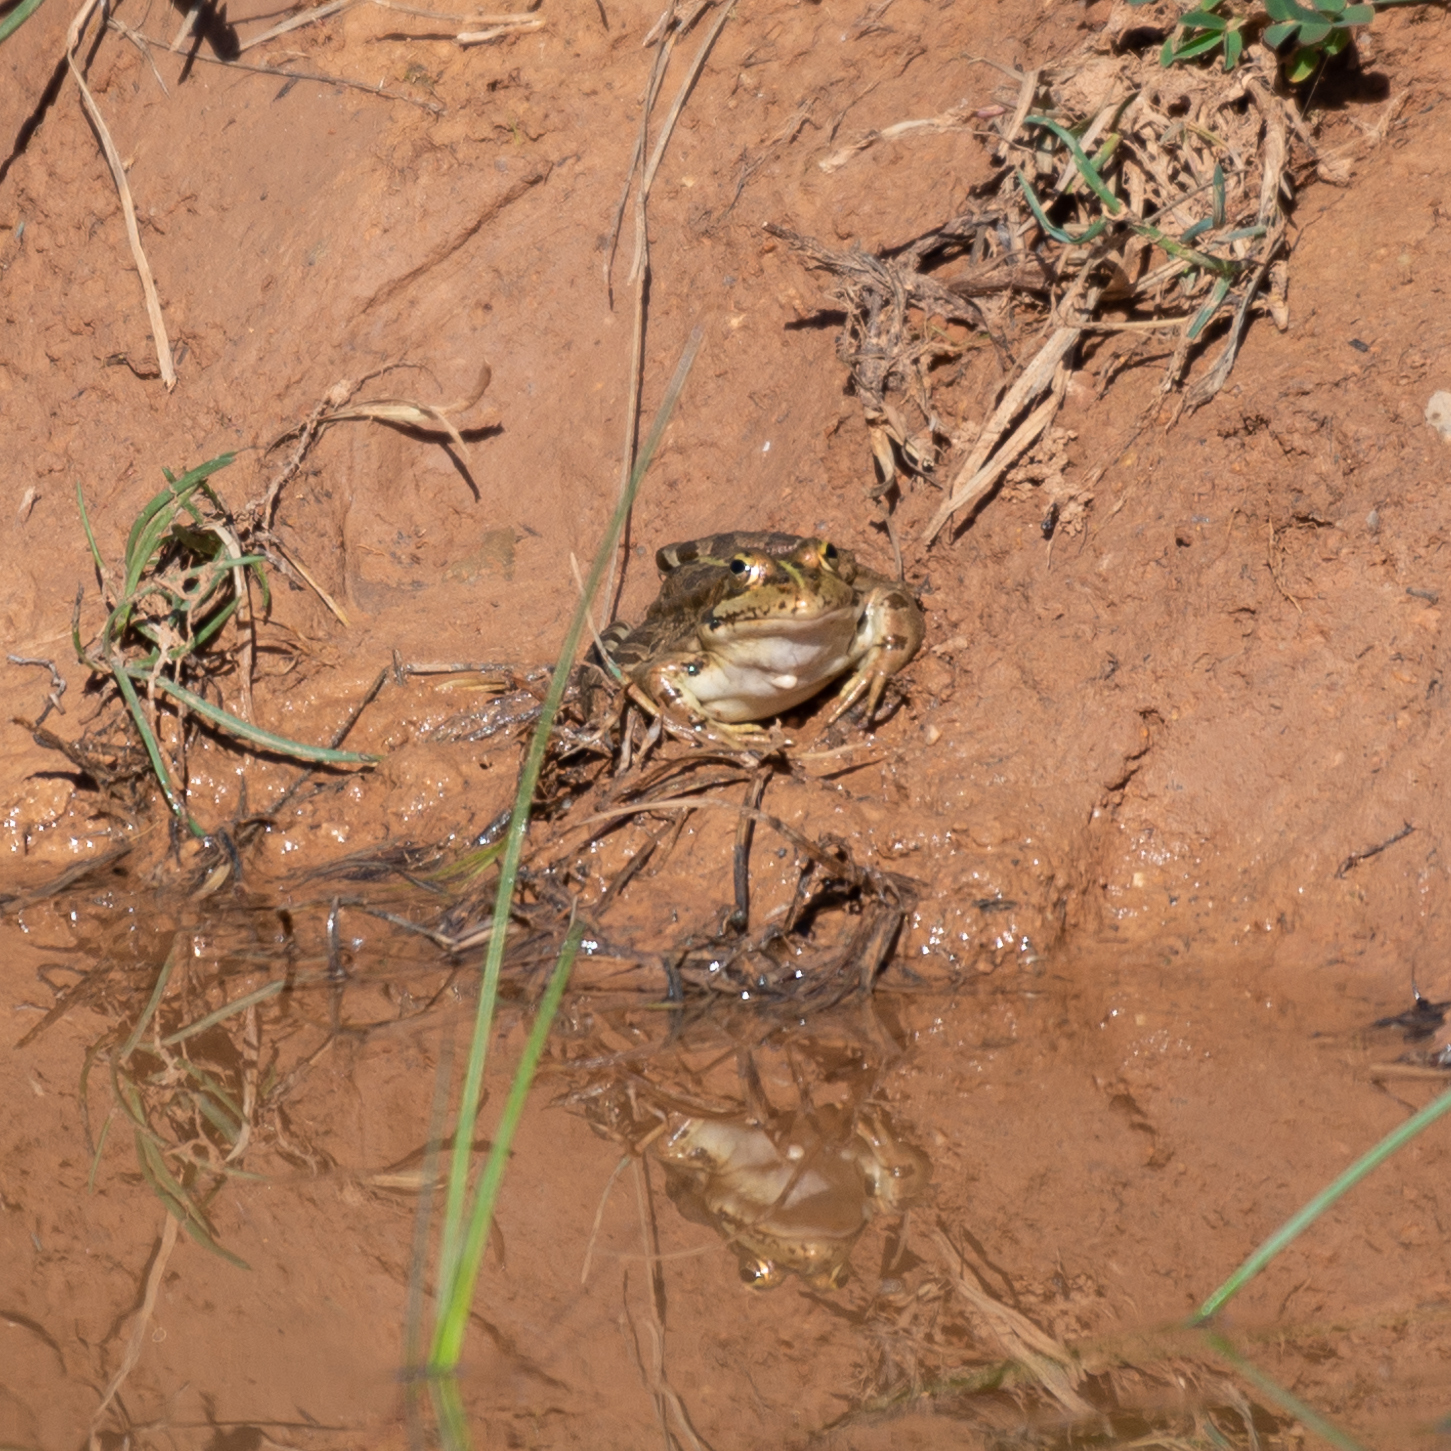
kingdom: Animalia
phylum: Chordata
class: Amphibia
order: Anura
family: Ranidae
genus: Pelophylax
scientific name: Pelophylax perezi
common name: Perez's frog
